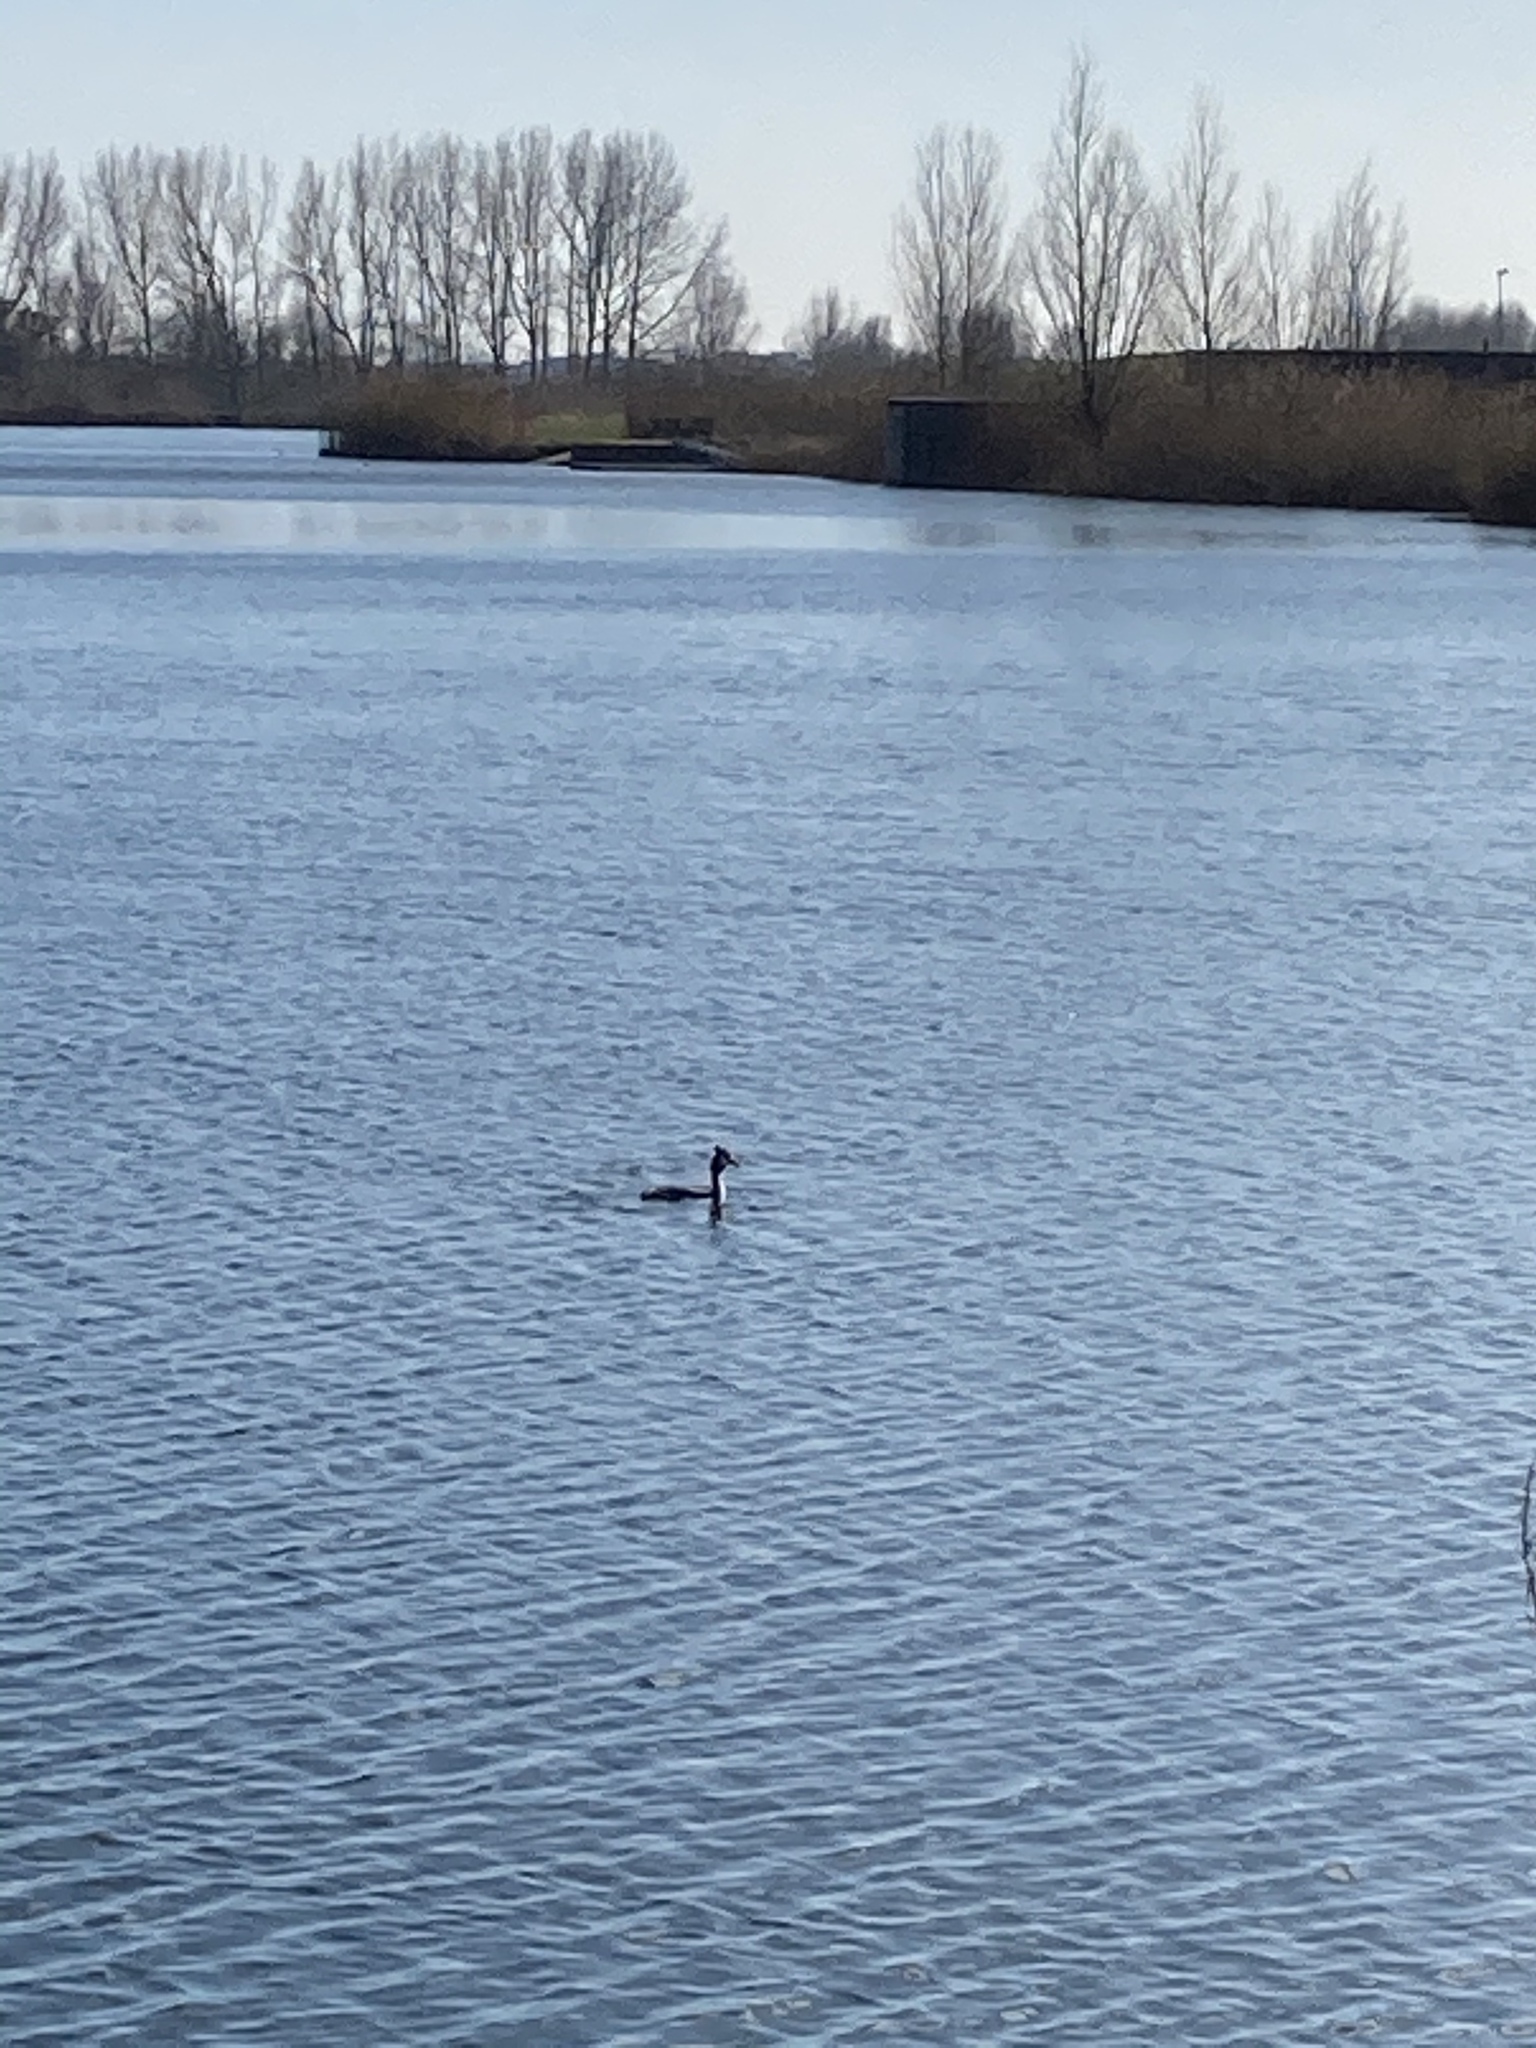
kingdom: Animalia
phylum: Chordata
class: Aves
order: Podicipediformes
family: Podicipedidae
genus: Podiceps
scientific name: Podiceps cristatus
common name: Great crested grebe
